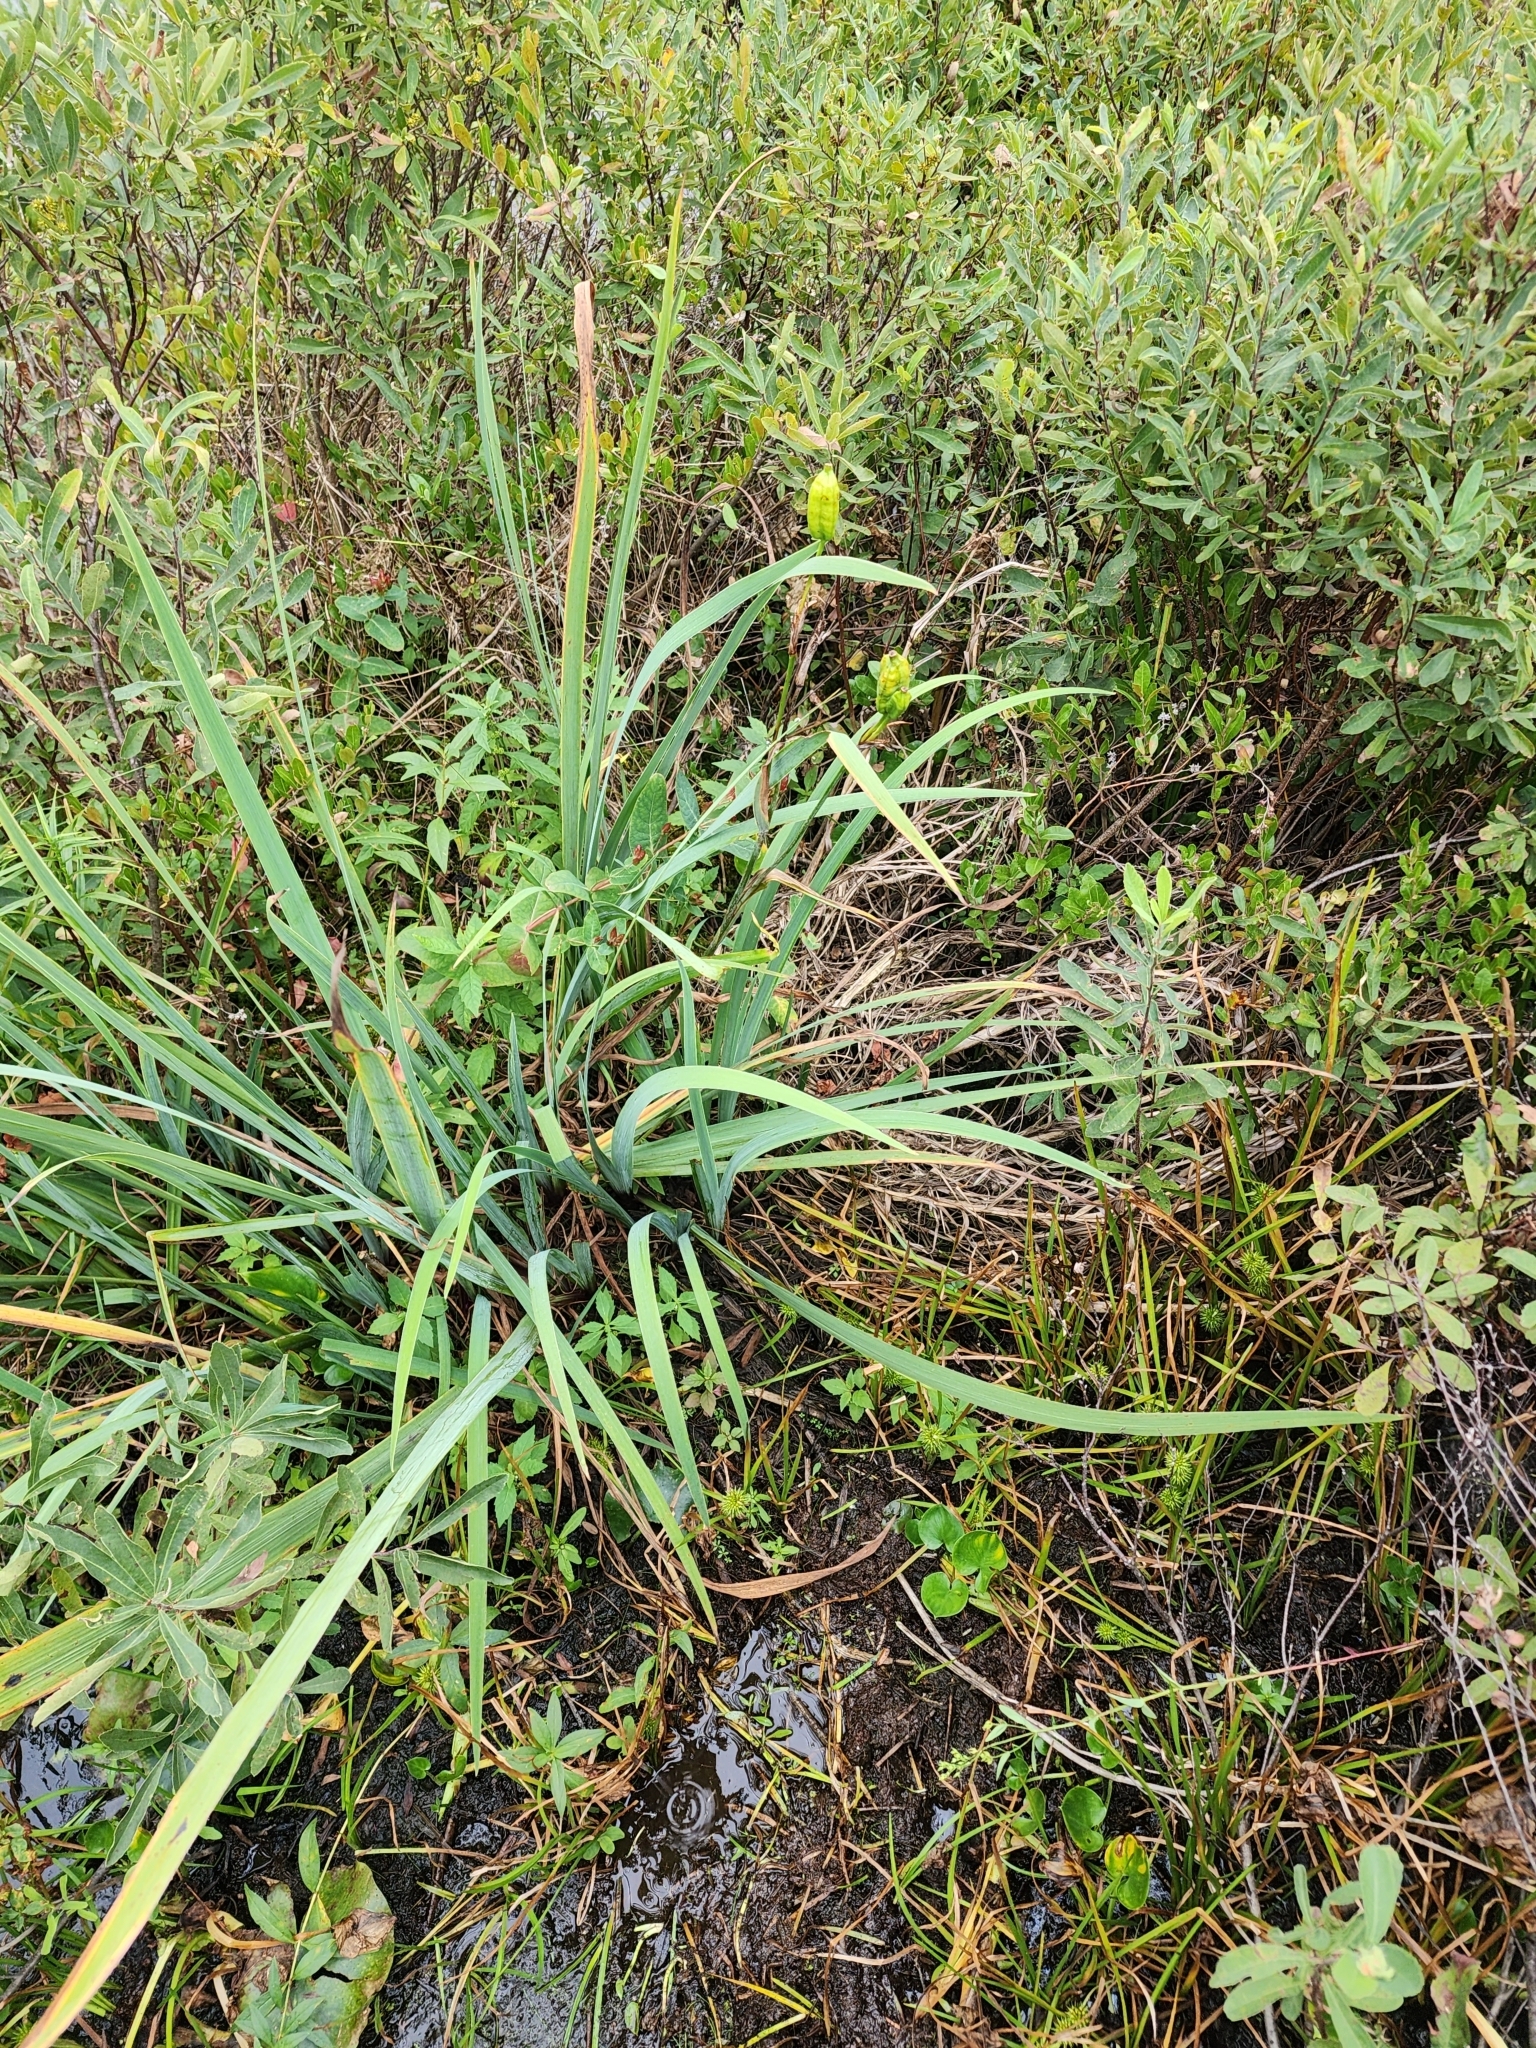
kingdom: Plantae
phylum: Tracheophyta
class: Liliopsida
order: Asparagales
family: Iridaceae
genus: Iris
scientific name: Iris versicolor
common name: Purple iris
